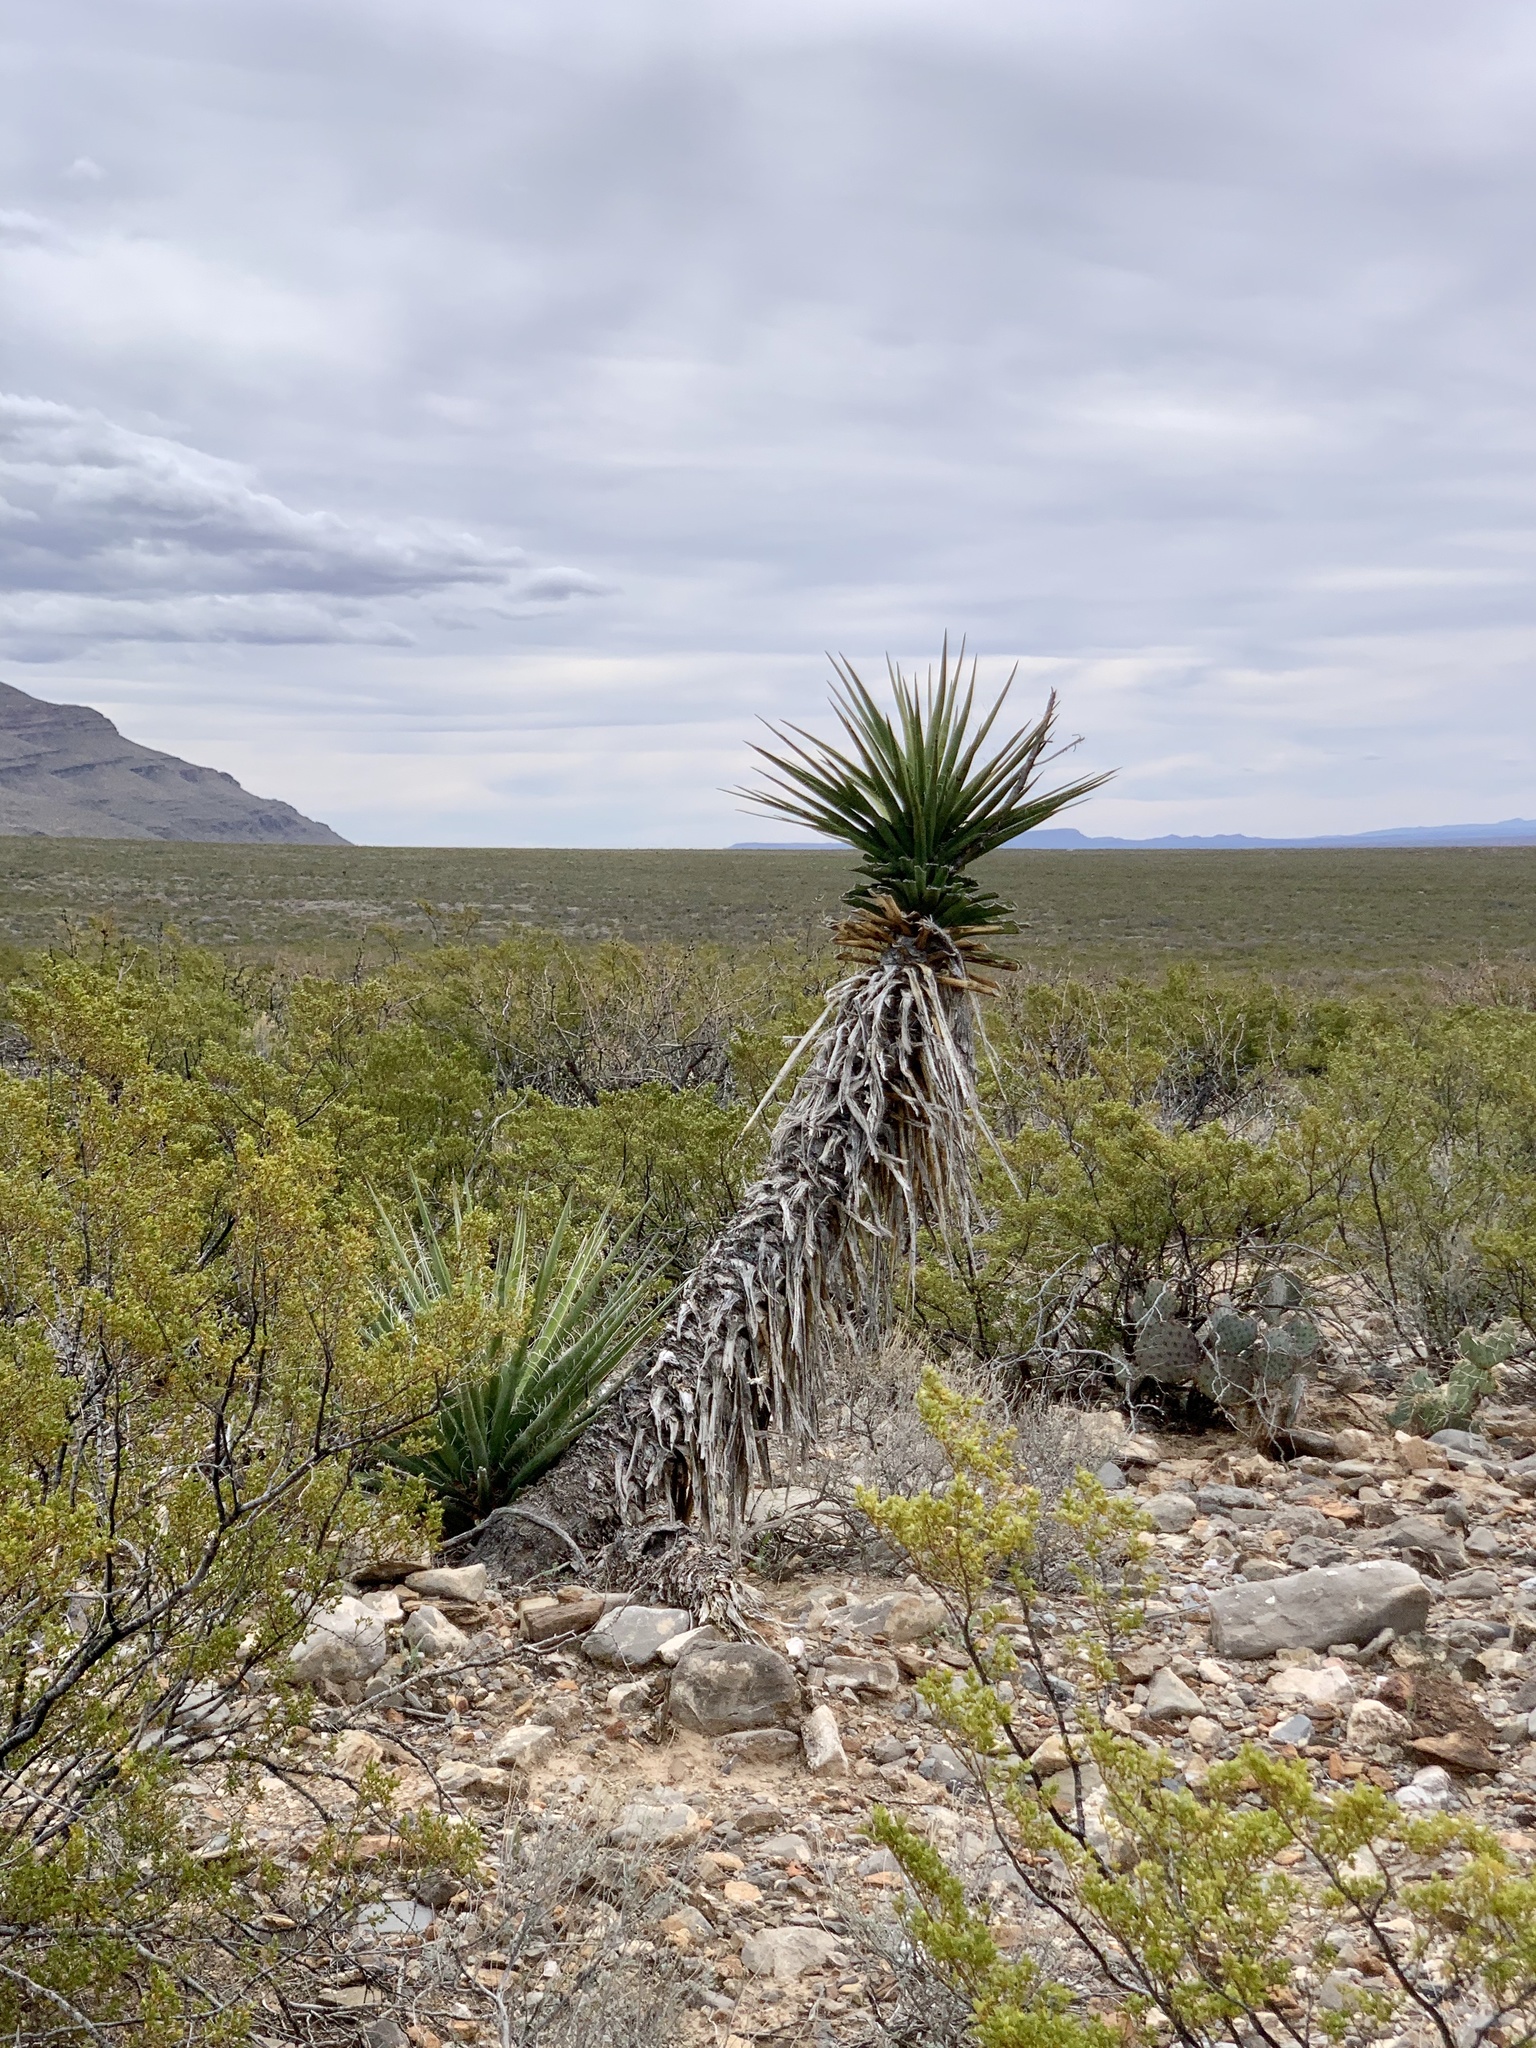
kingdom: Plantae
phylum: Tracheophyta
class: Liliopsida
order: Asparagales
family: Asparagaceae
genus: Yucca
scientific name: Yucca treculiana
